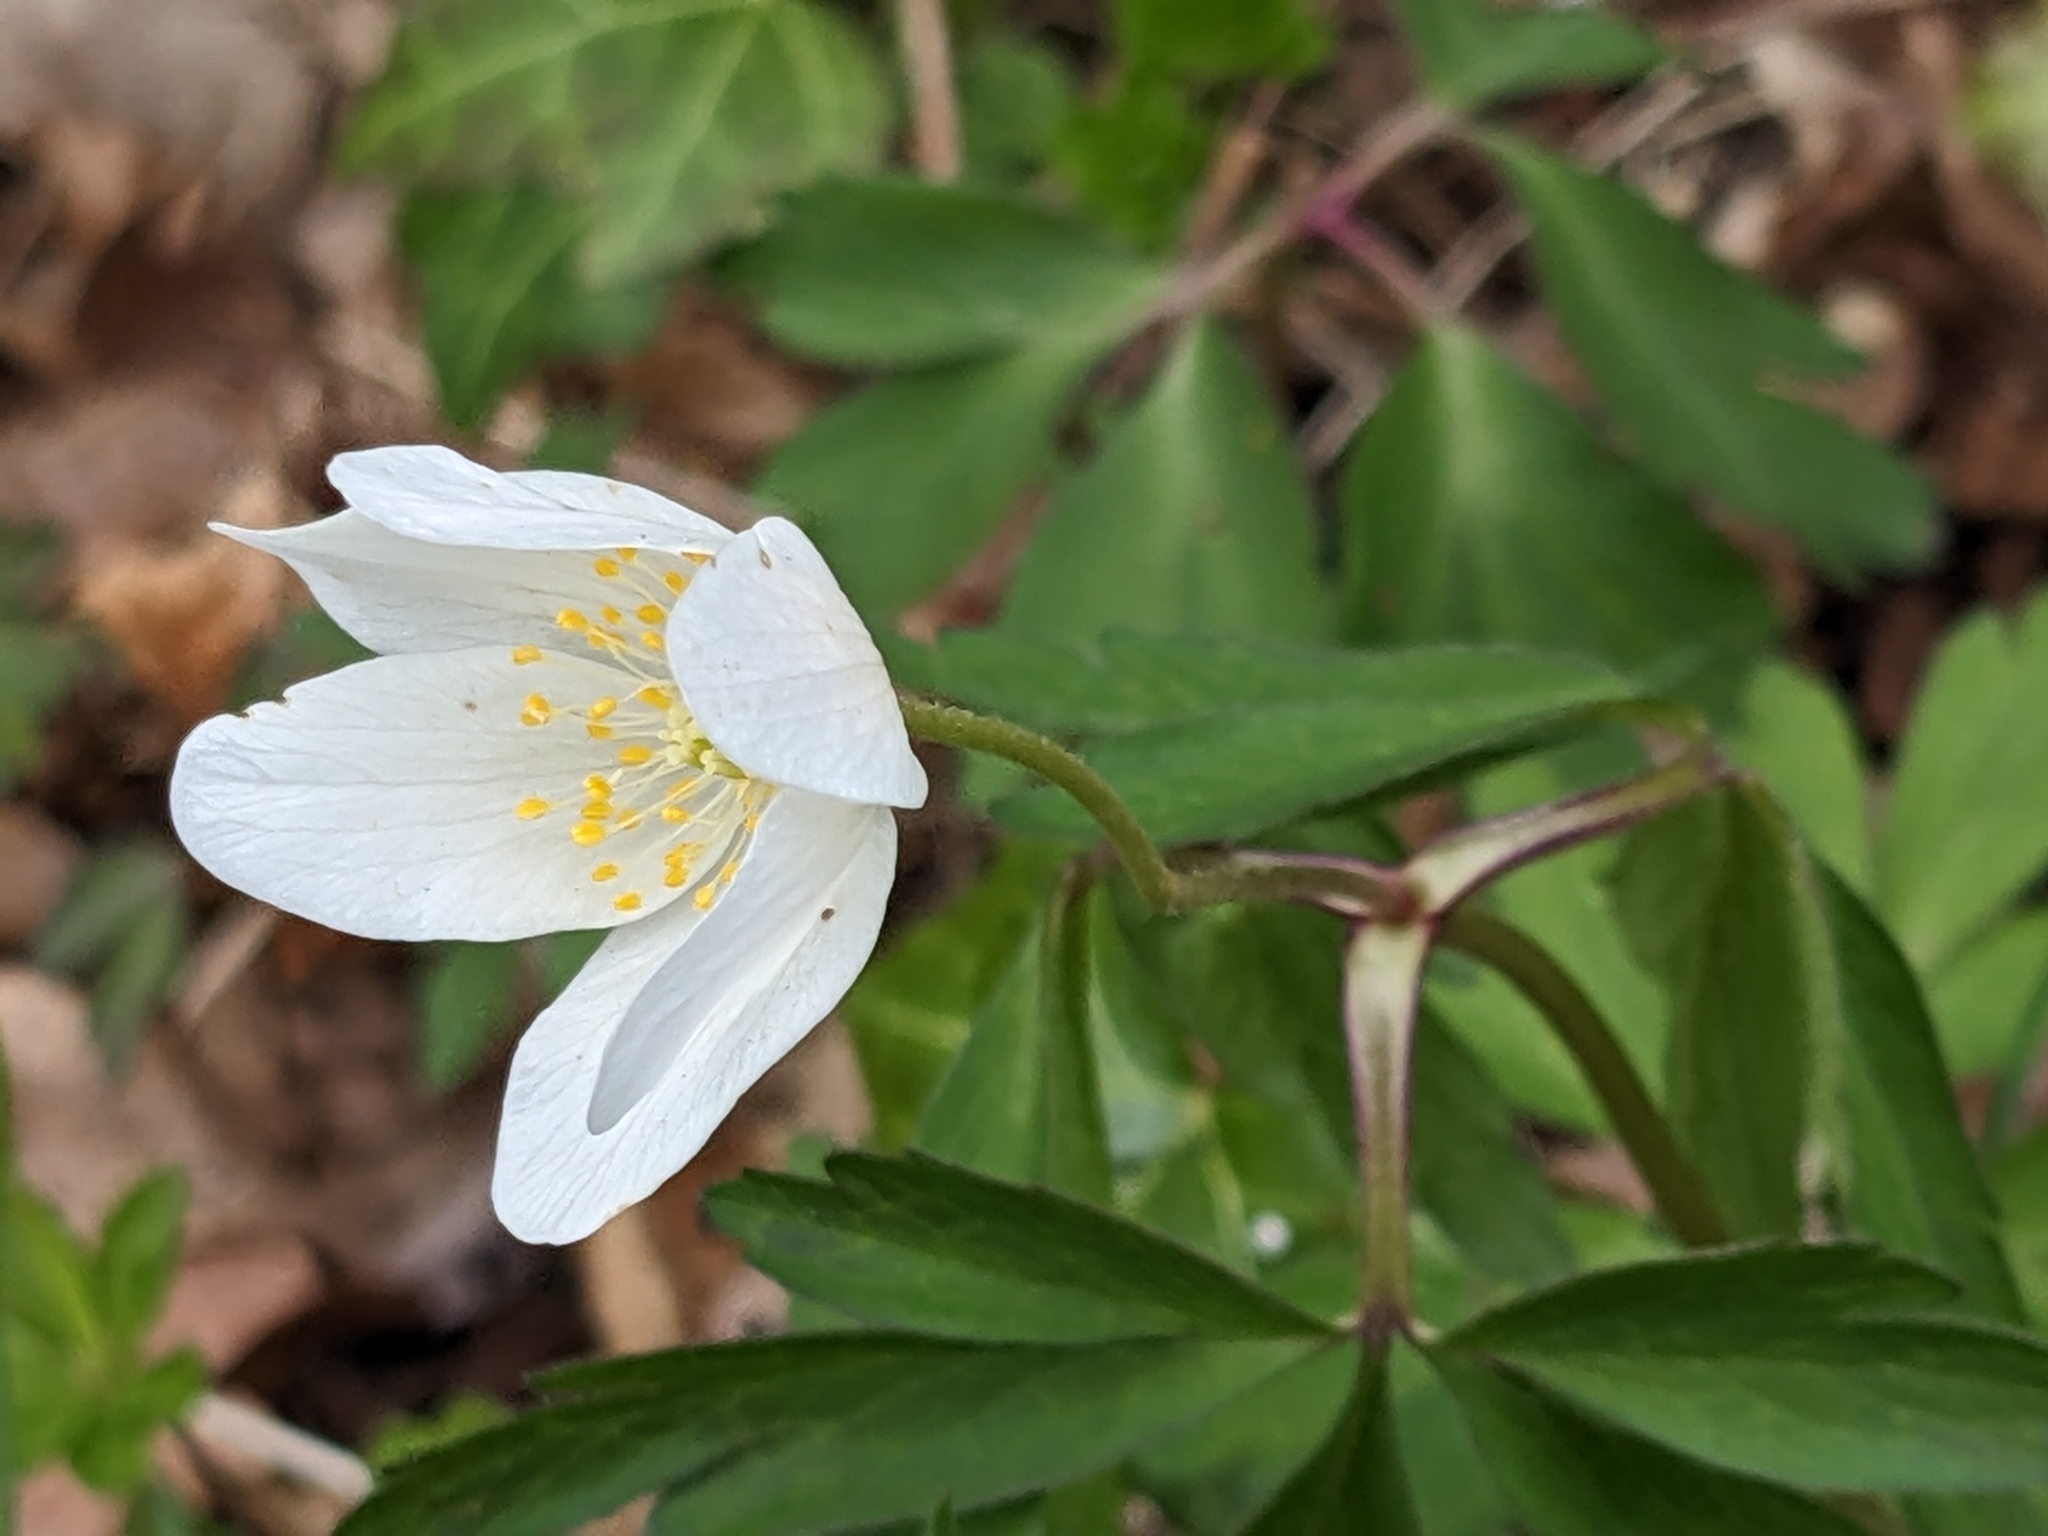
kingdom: Plantae
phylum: Tracheophyta
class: Magnoliopsida
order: Ranunculales
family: Ranunculaceae
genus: Anemone
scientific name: Anemone nemorosa
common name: Wood anemone
